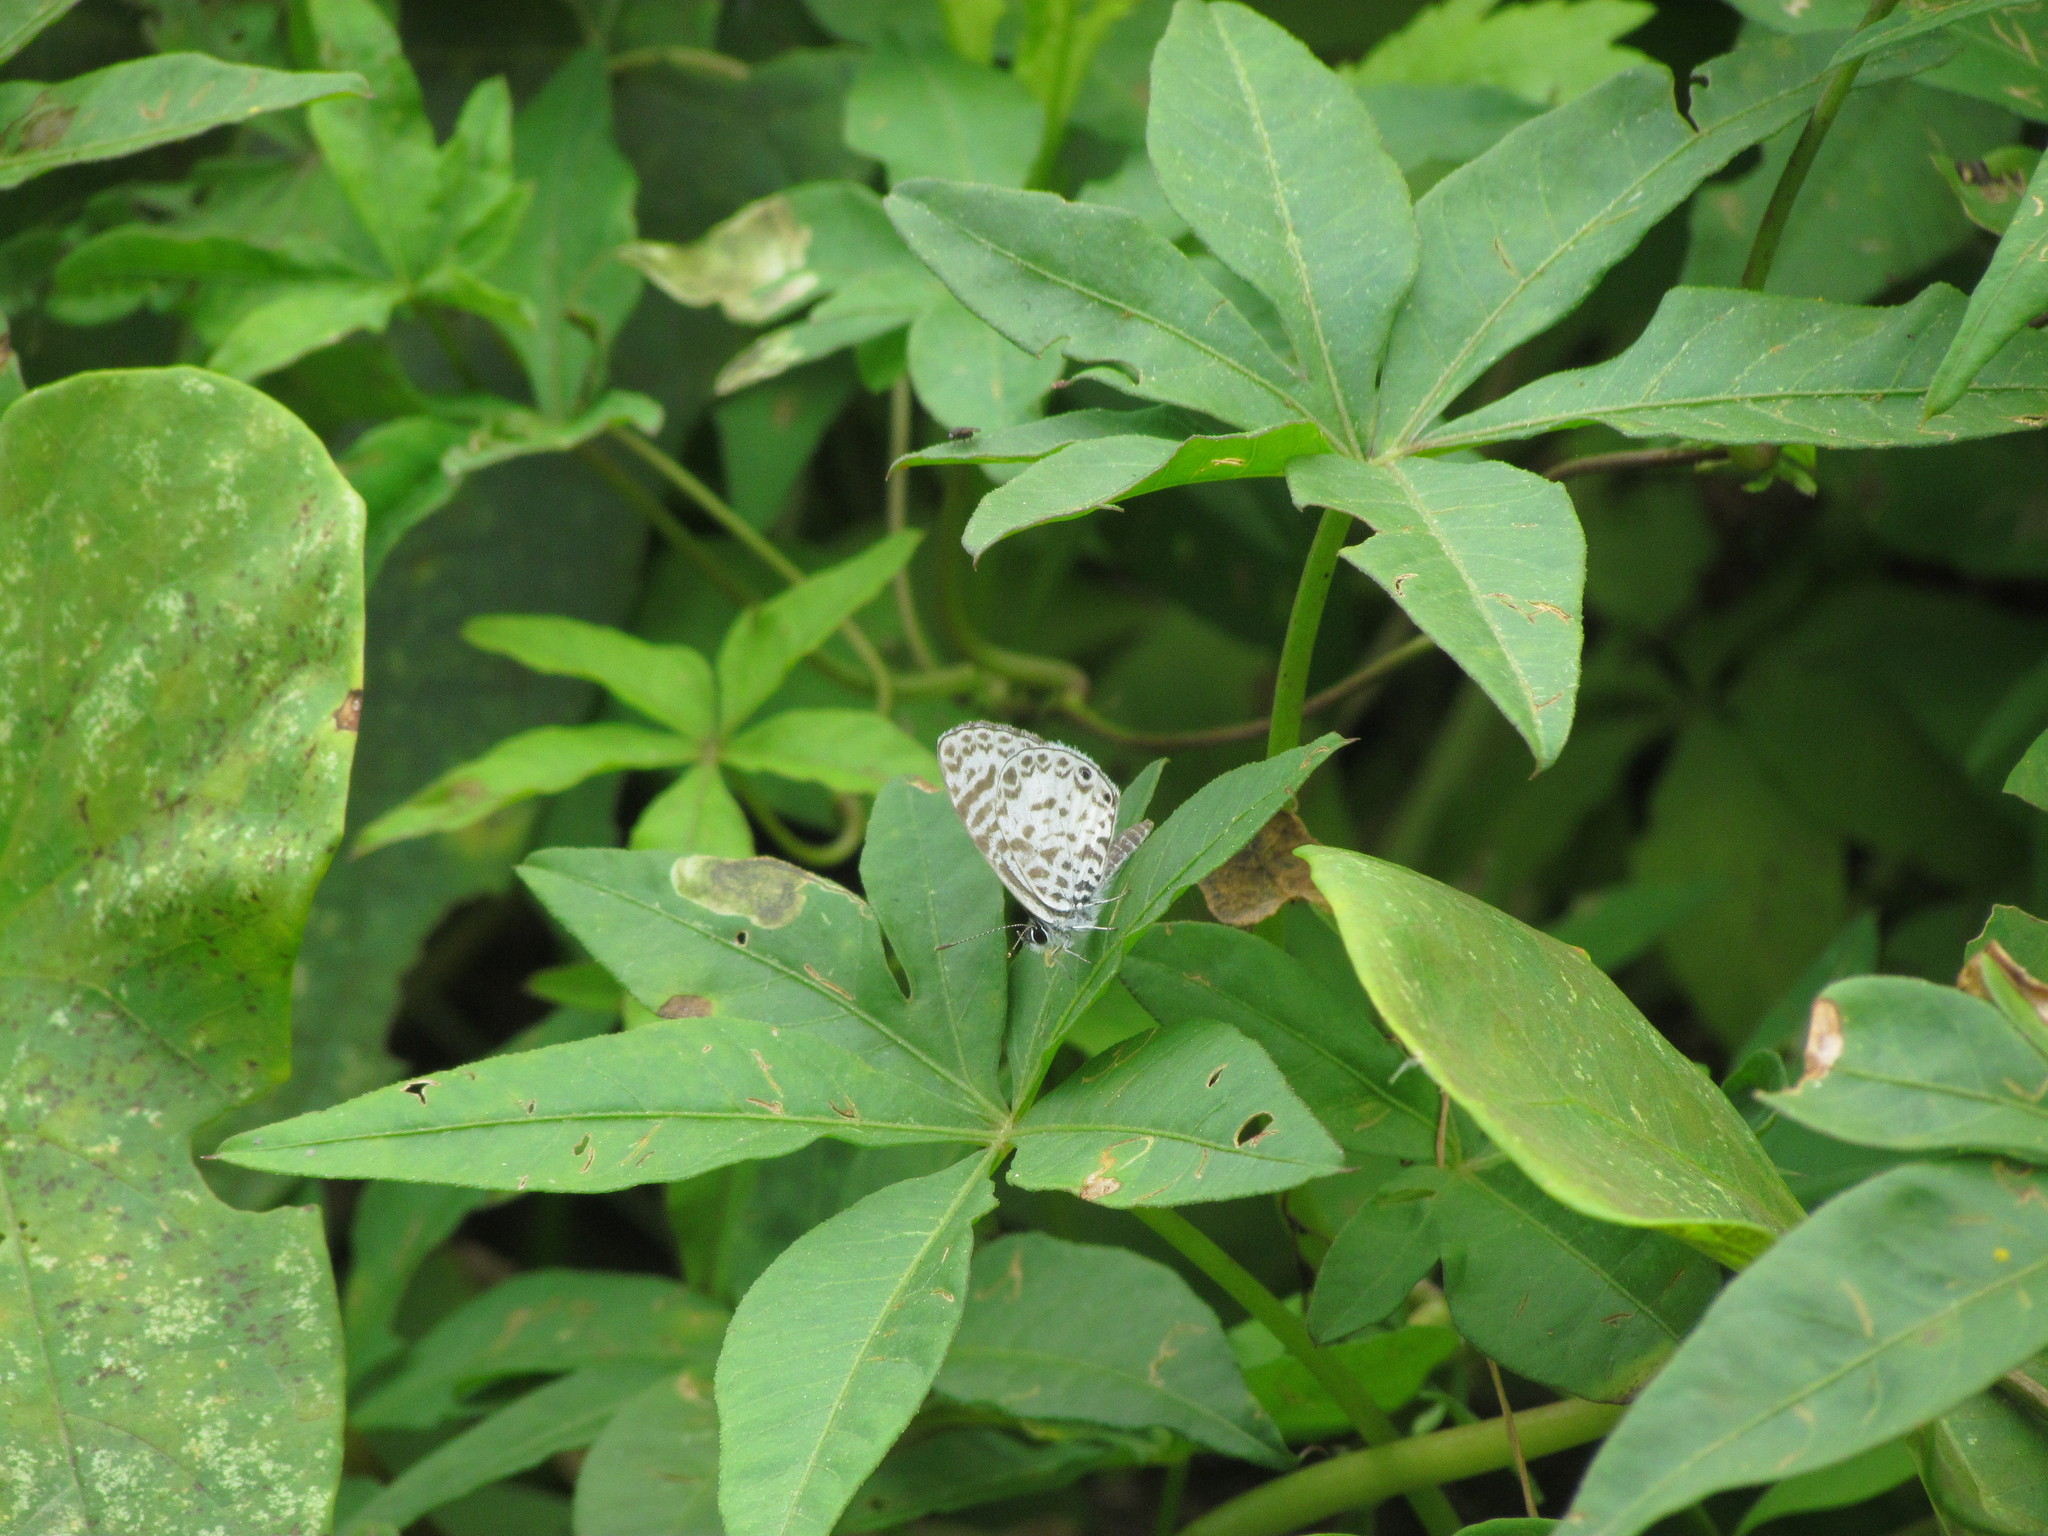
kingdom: Animalia
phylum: Arthropoda
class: Insecta
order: Lepidoptera
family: Lycaenidae
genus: Leptotes
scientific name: Leptotes cassius
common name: Cassius blue
